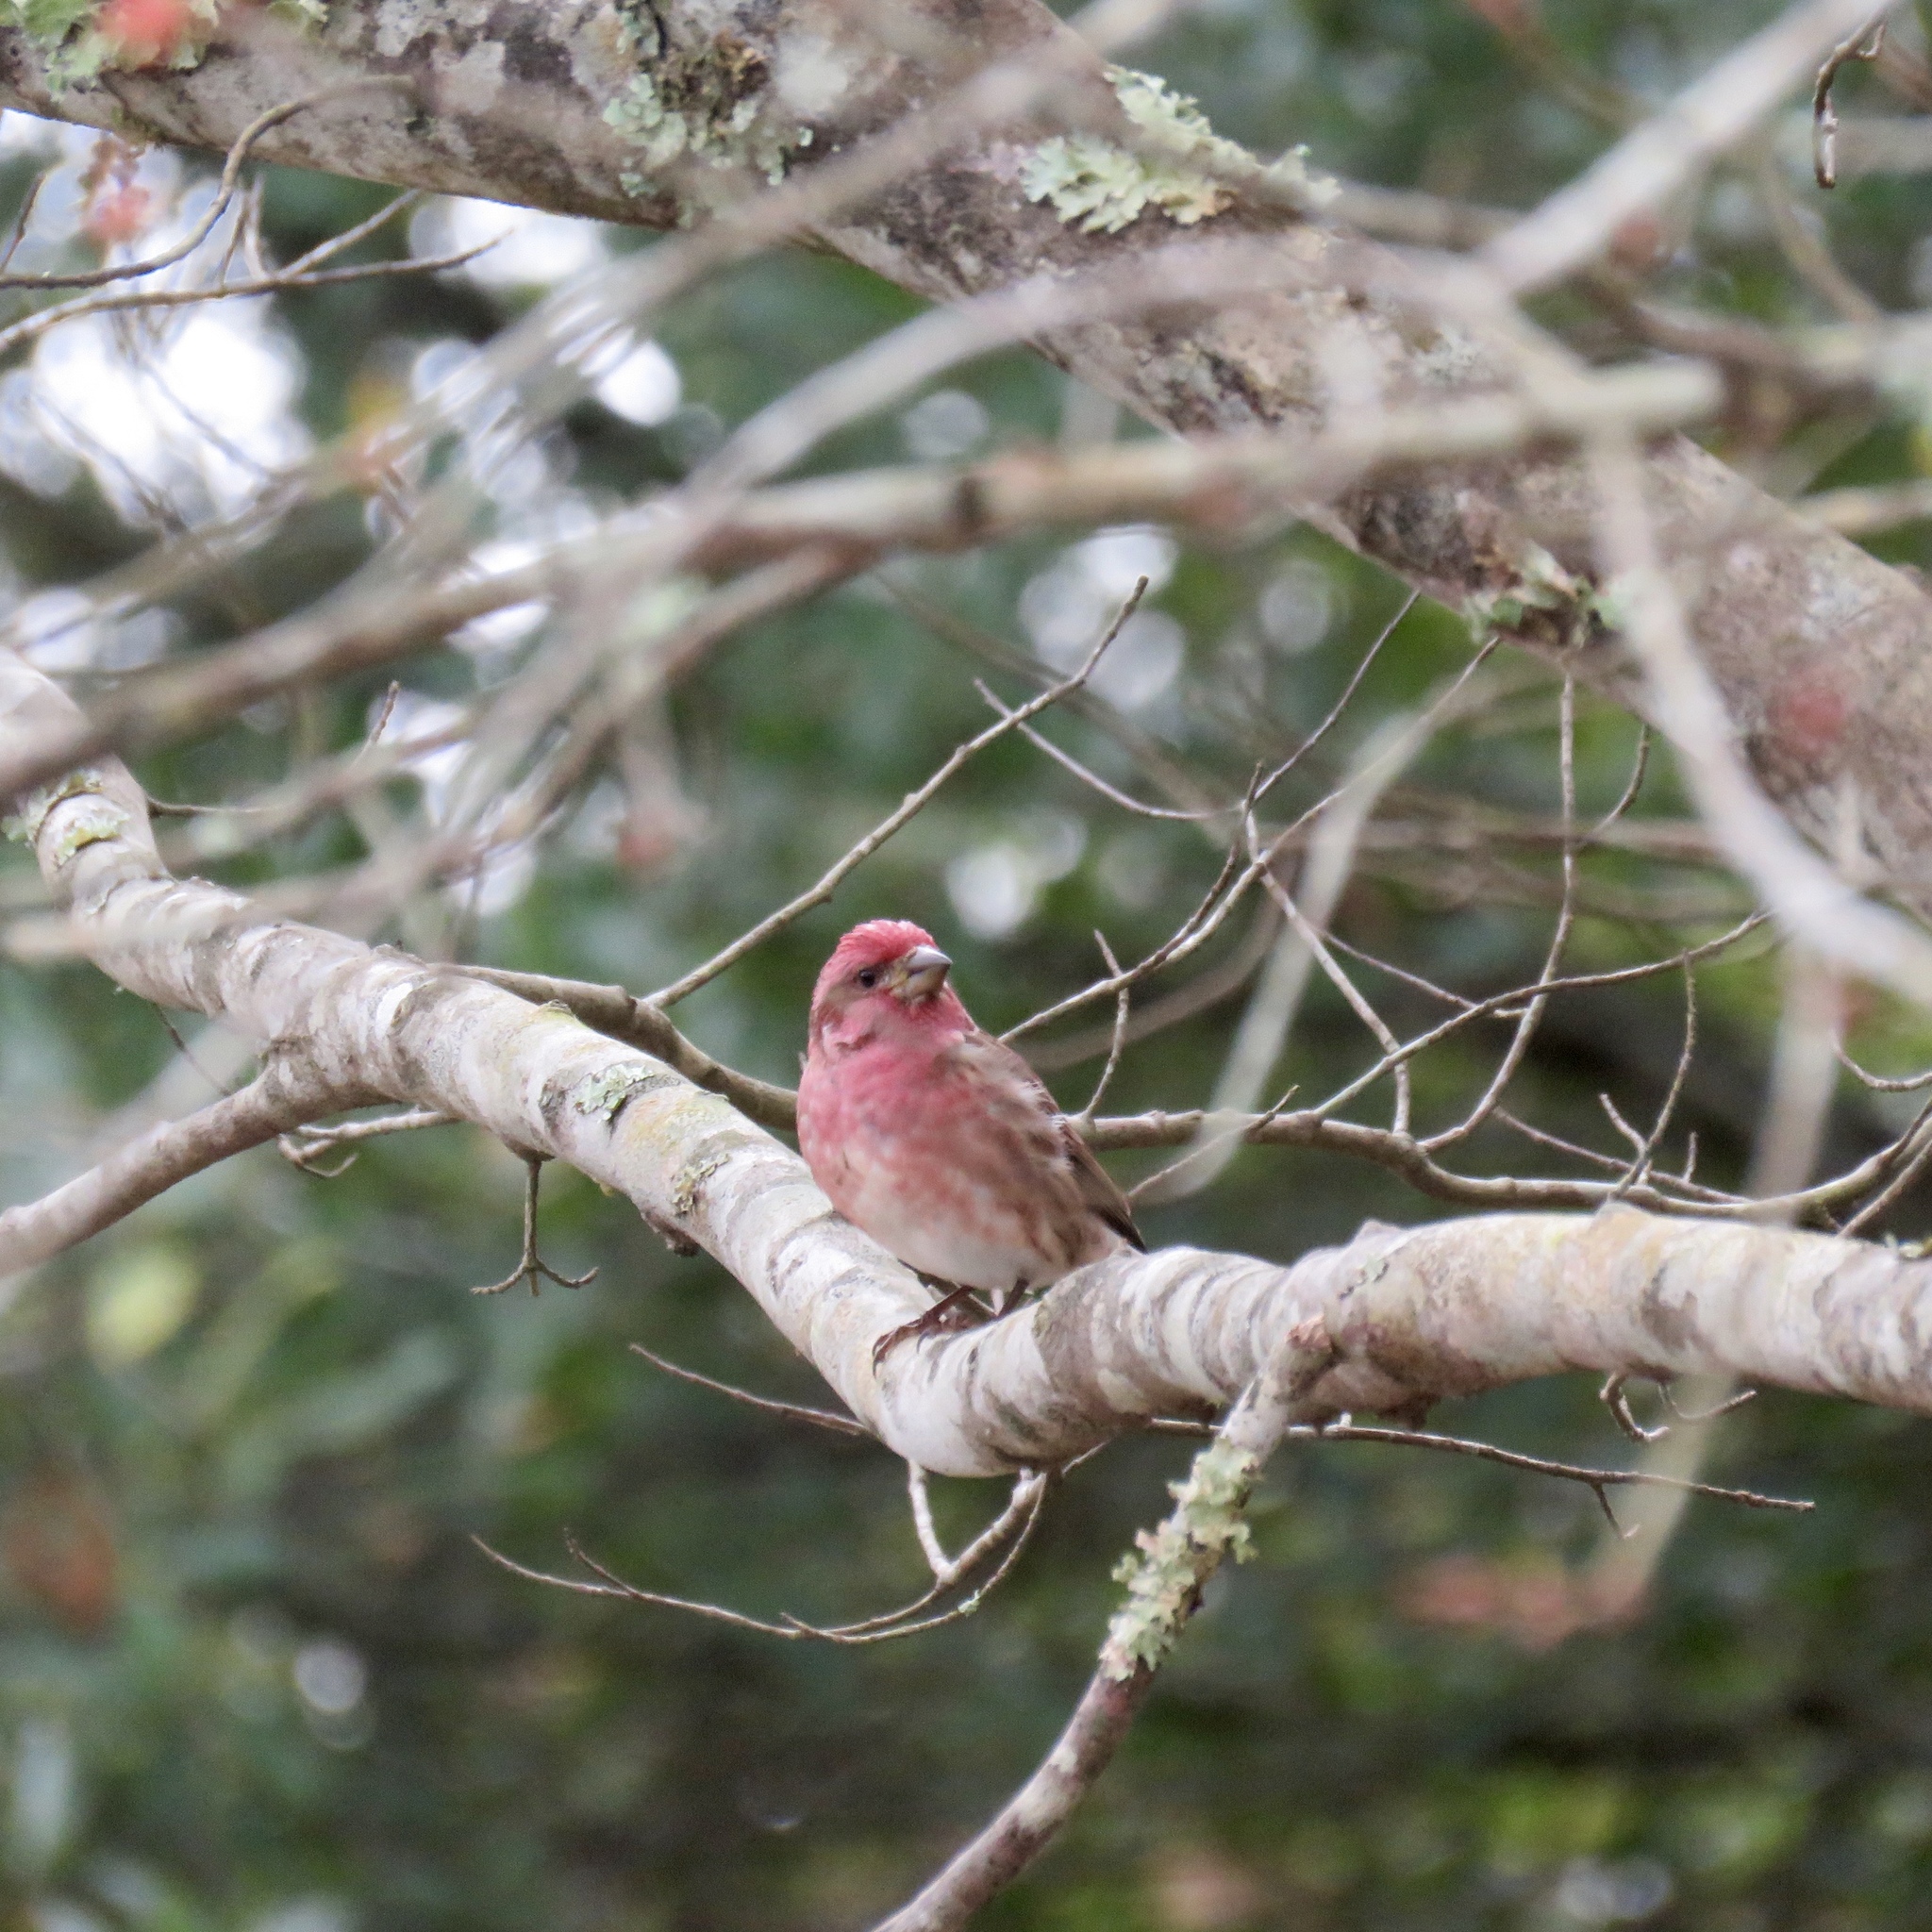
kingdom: Animalia
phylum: Chordata
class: Aves
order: Passeriformes
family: Fringillidae
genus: Haemorhous
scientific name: Haemorhous purpureus
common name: Purple finch
